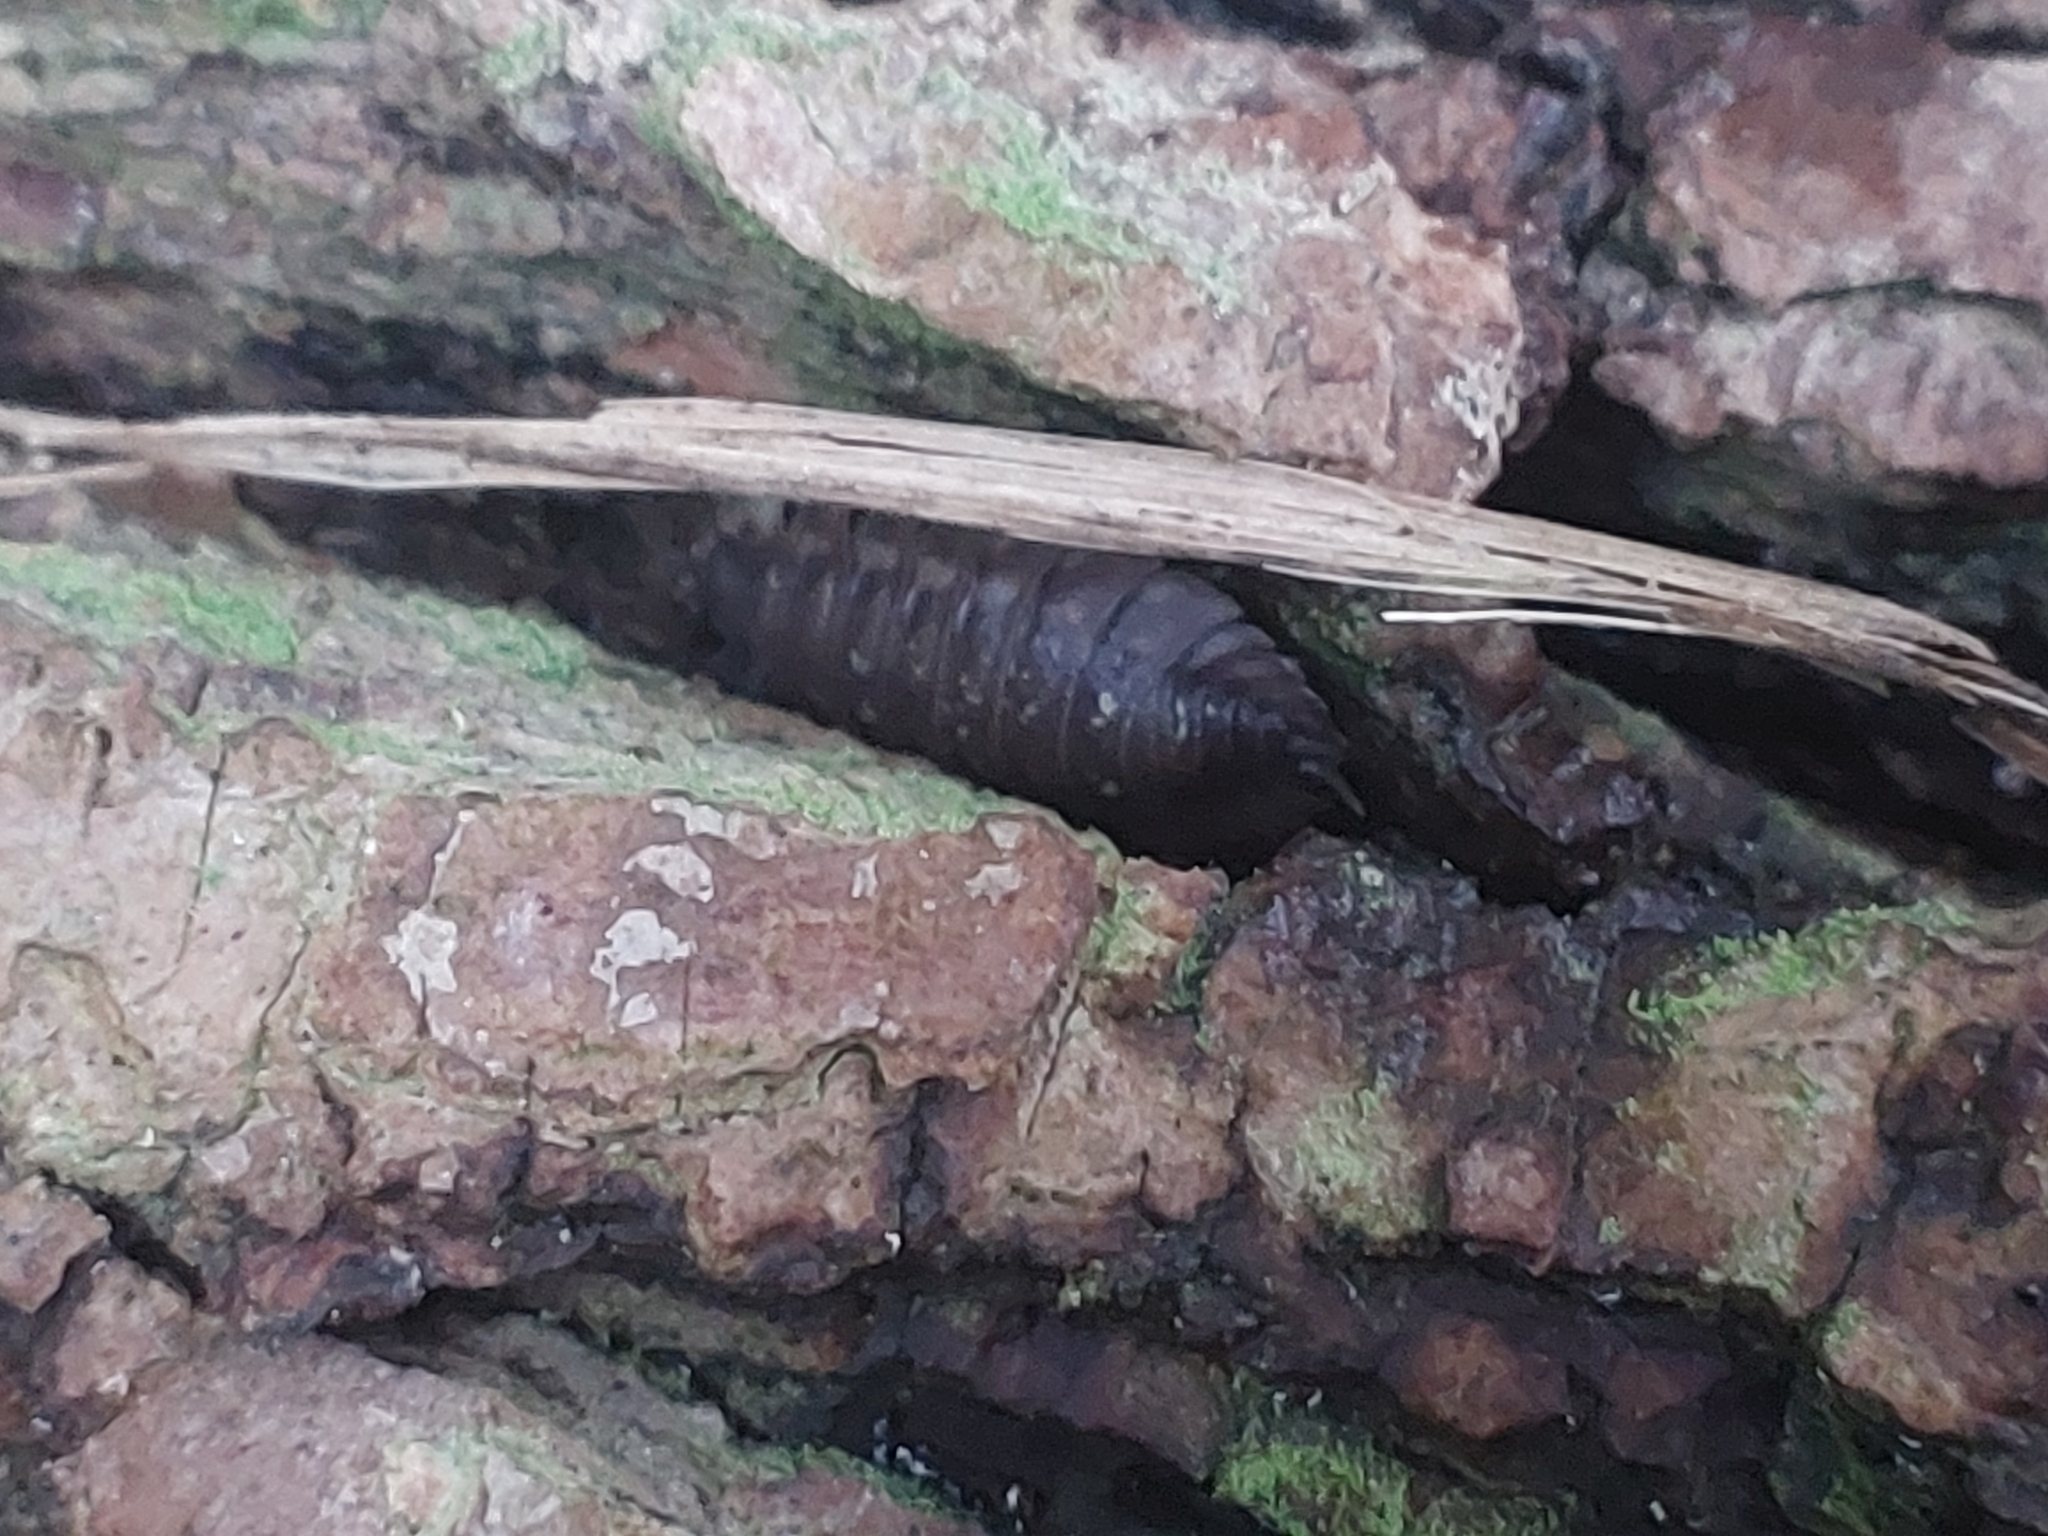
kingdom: Animalia
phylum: Arthropoda
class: Malacostraca
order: Isopoda
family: Oniscidae
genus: Oniscus
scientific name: Oniscus asellus
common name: Common shiny woodlouse
